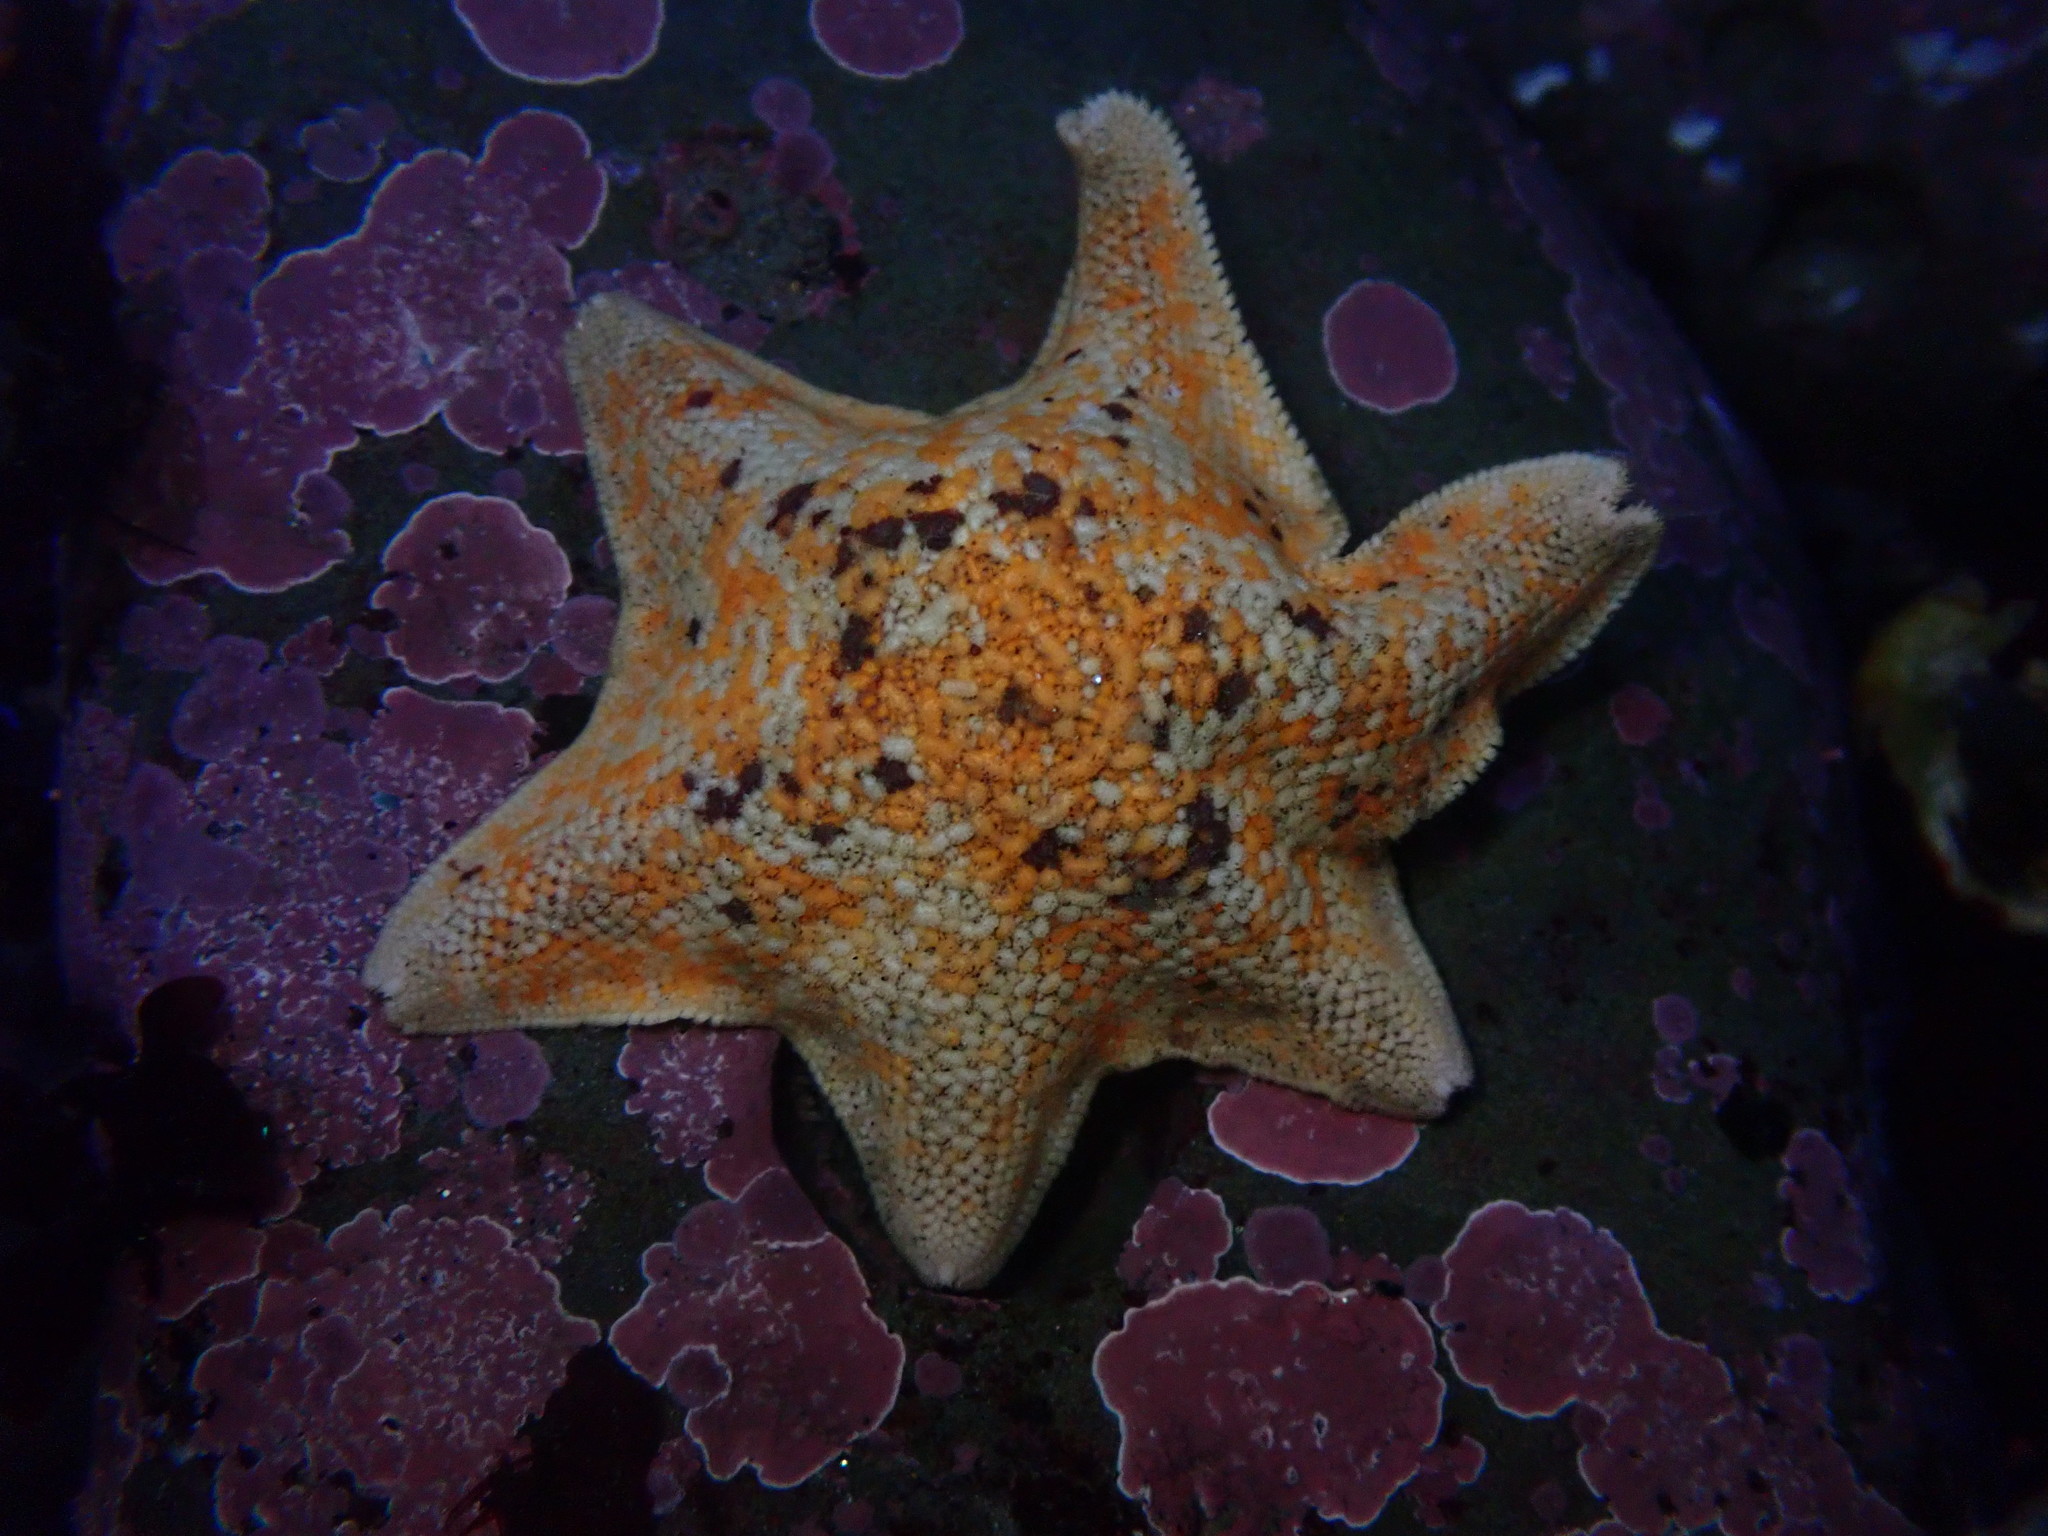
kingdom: Animalia
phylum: Echinodermata
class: Asteroidea
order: Valvatida
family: Asterinidae
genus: Patiria
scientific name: Patiria miniata
